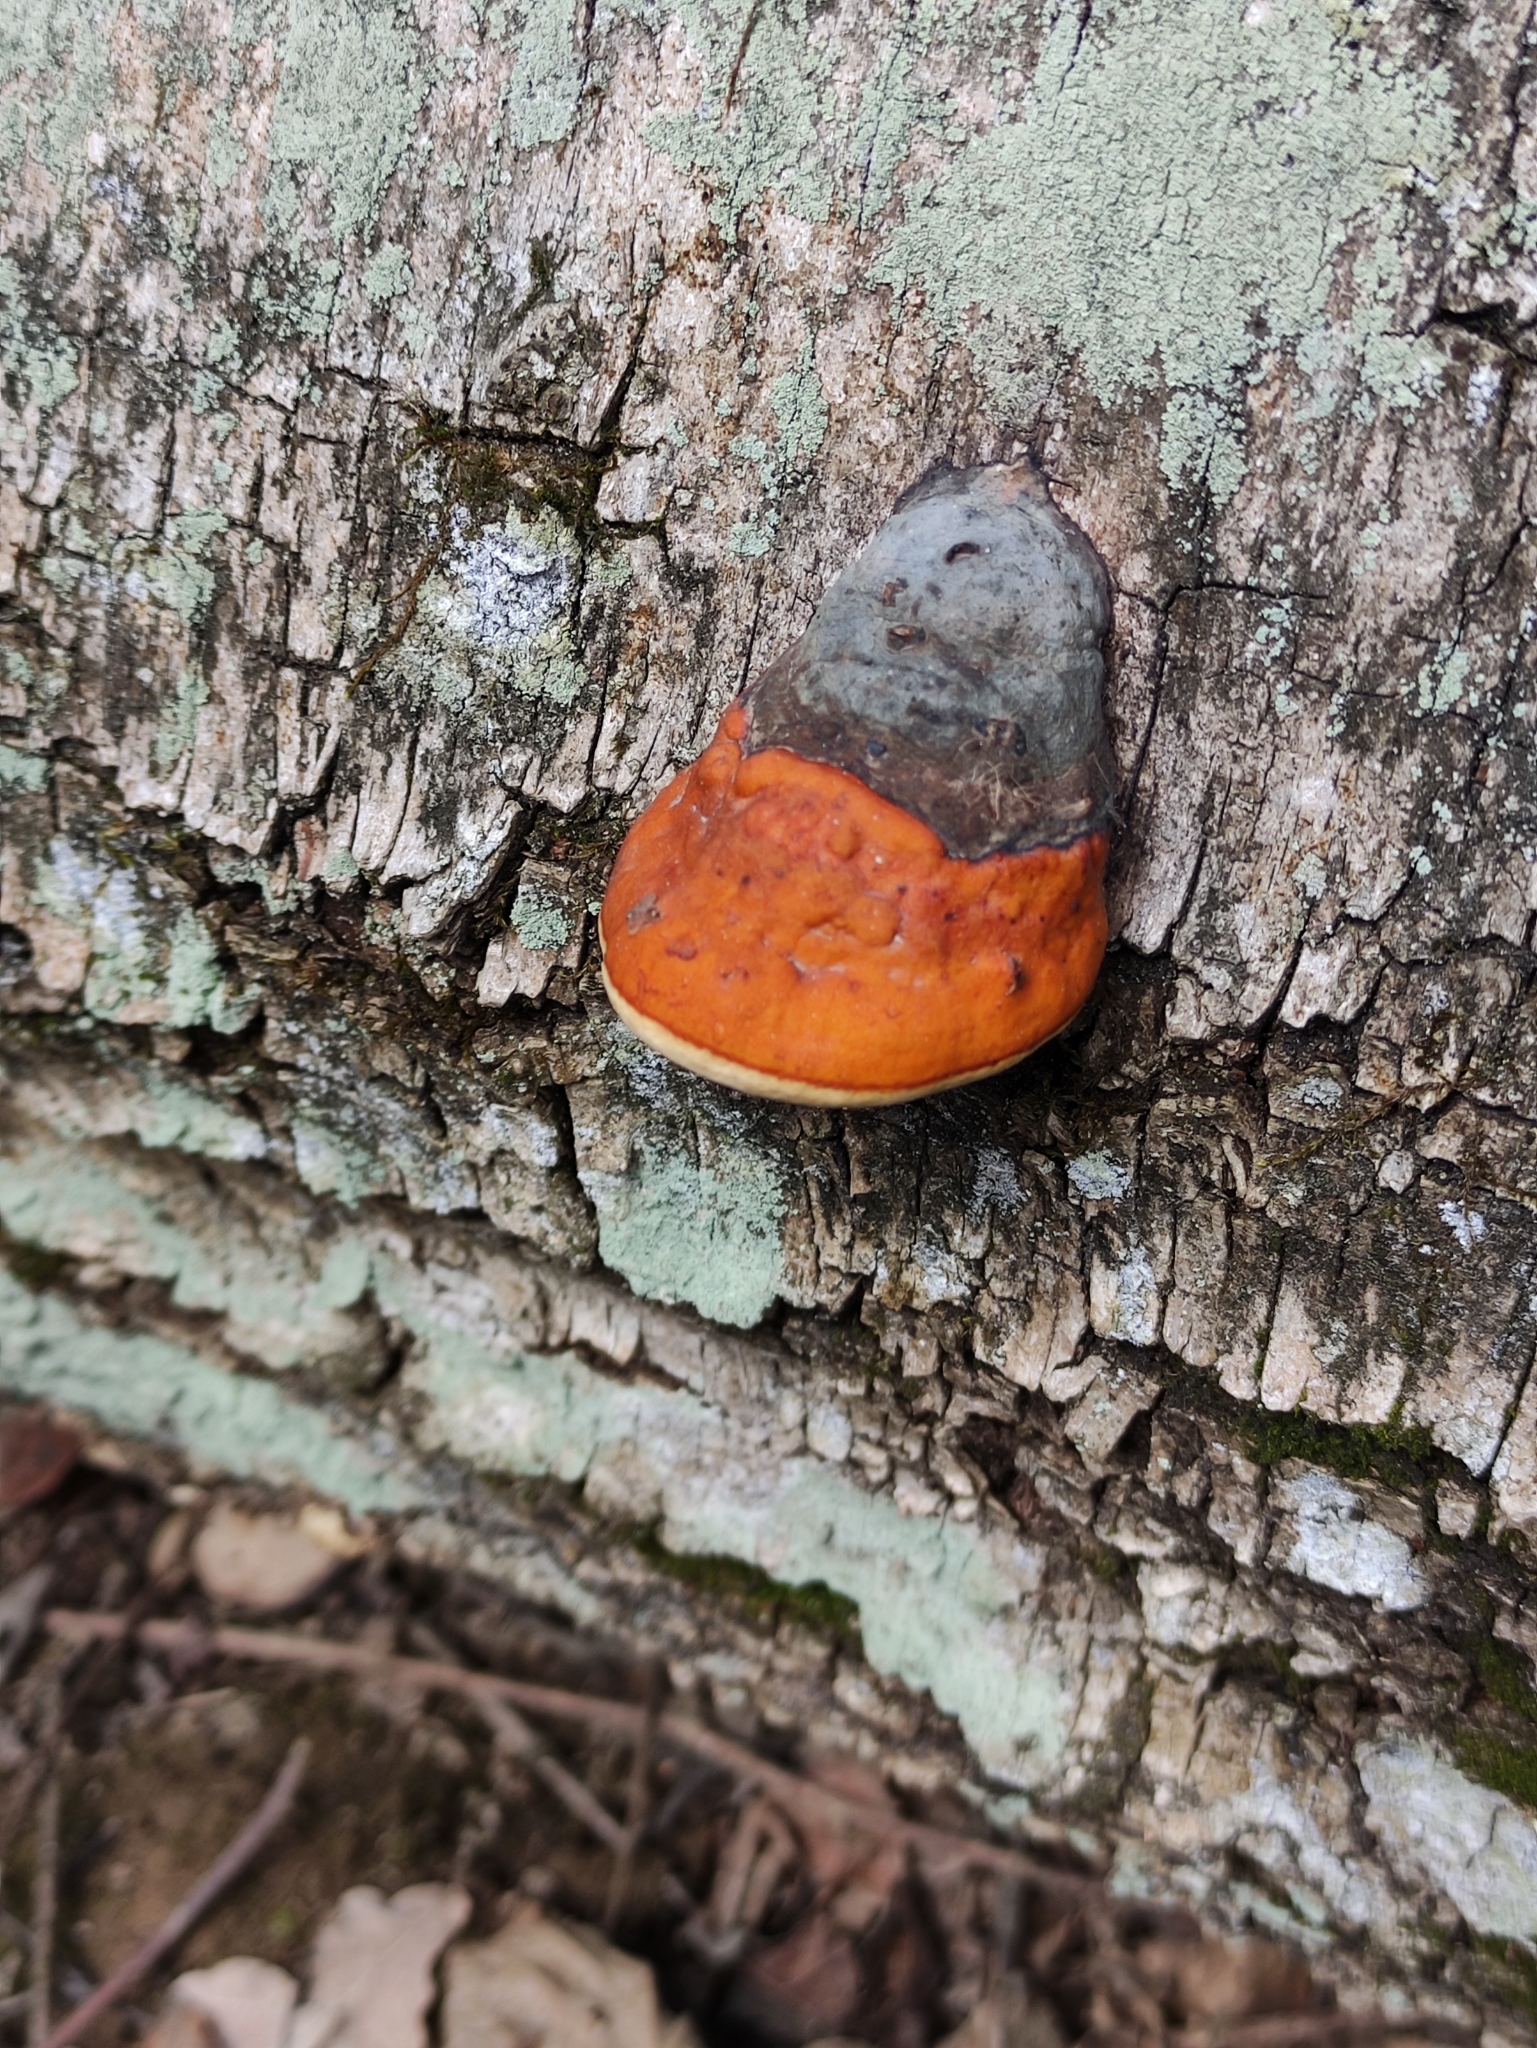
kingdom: Fungi
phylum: Basidiomycota
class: Agaricomycetes
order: Polyporales
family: Fomitopsidaceae
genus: Fomitopsis
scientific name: Fomitopsis pinicola
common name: Red-belted bracket
